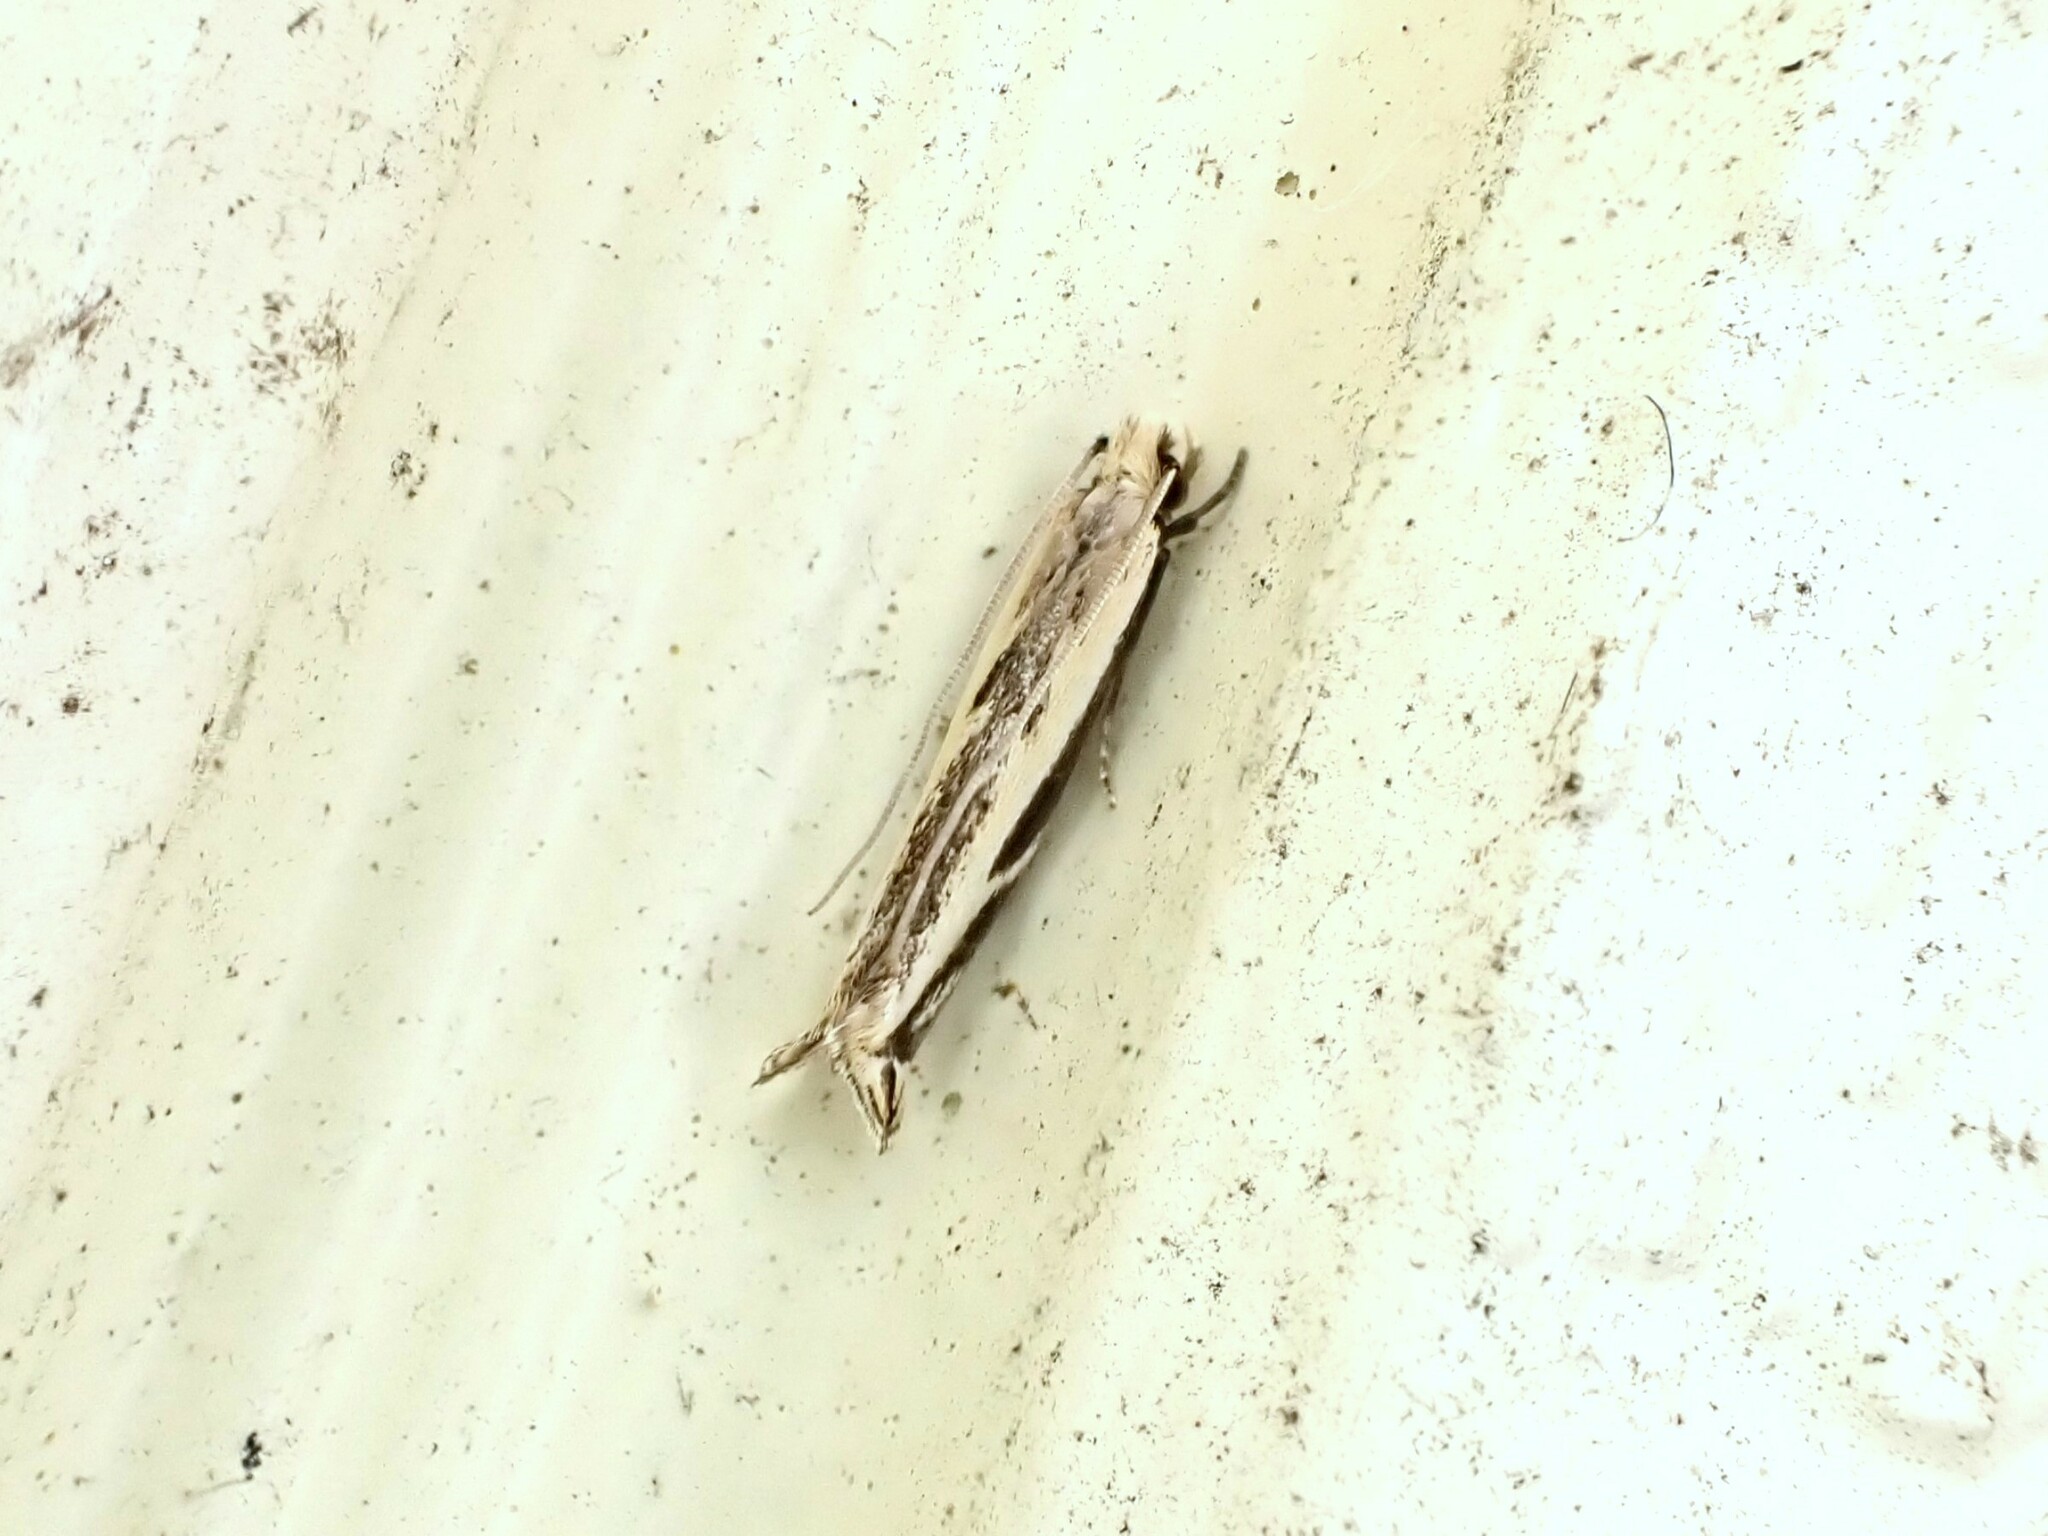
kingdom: Animalia
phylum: Arthropoda
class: Insecta
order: Lepidoptera
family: Tineidae
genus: Erechthias
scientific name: Erechthias terminella
